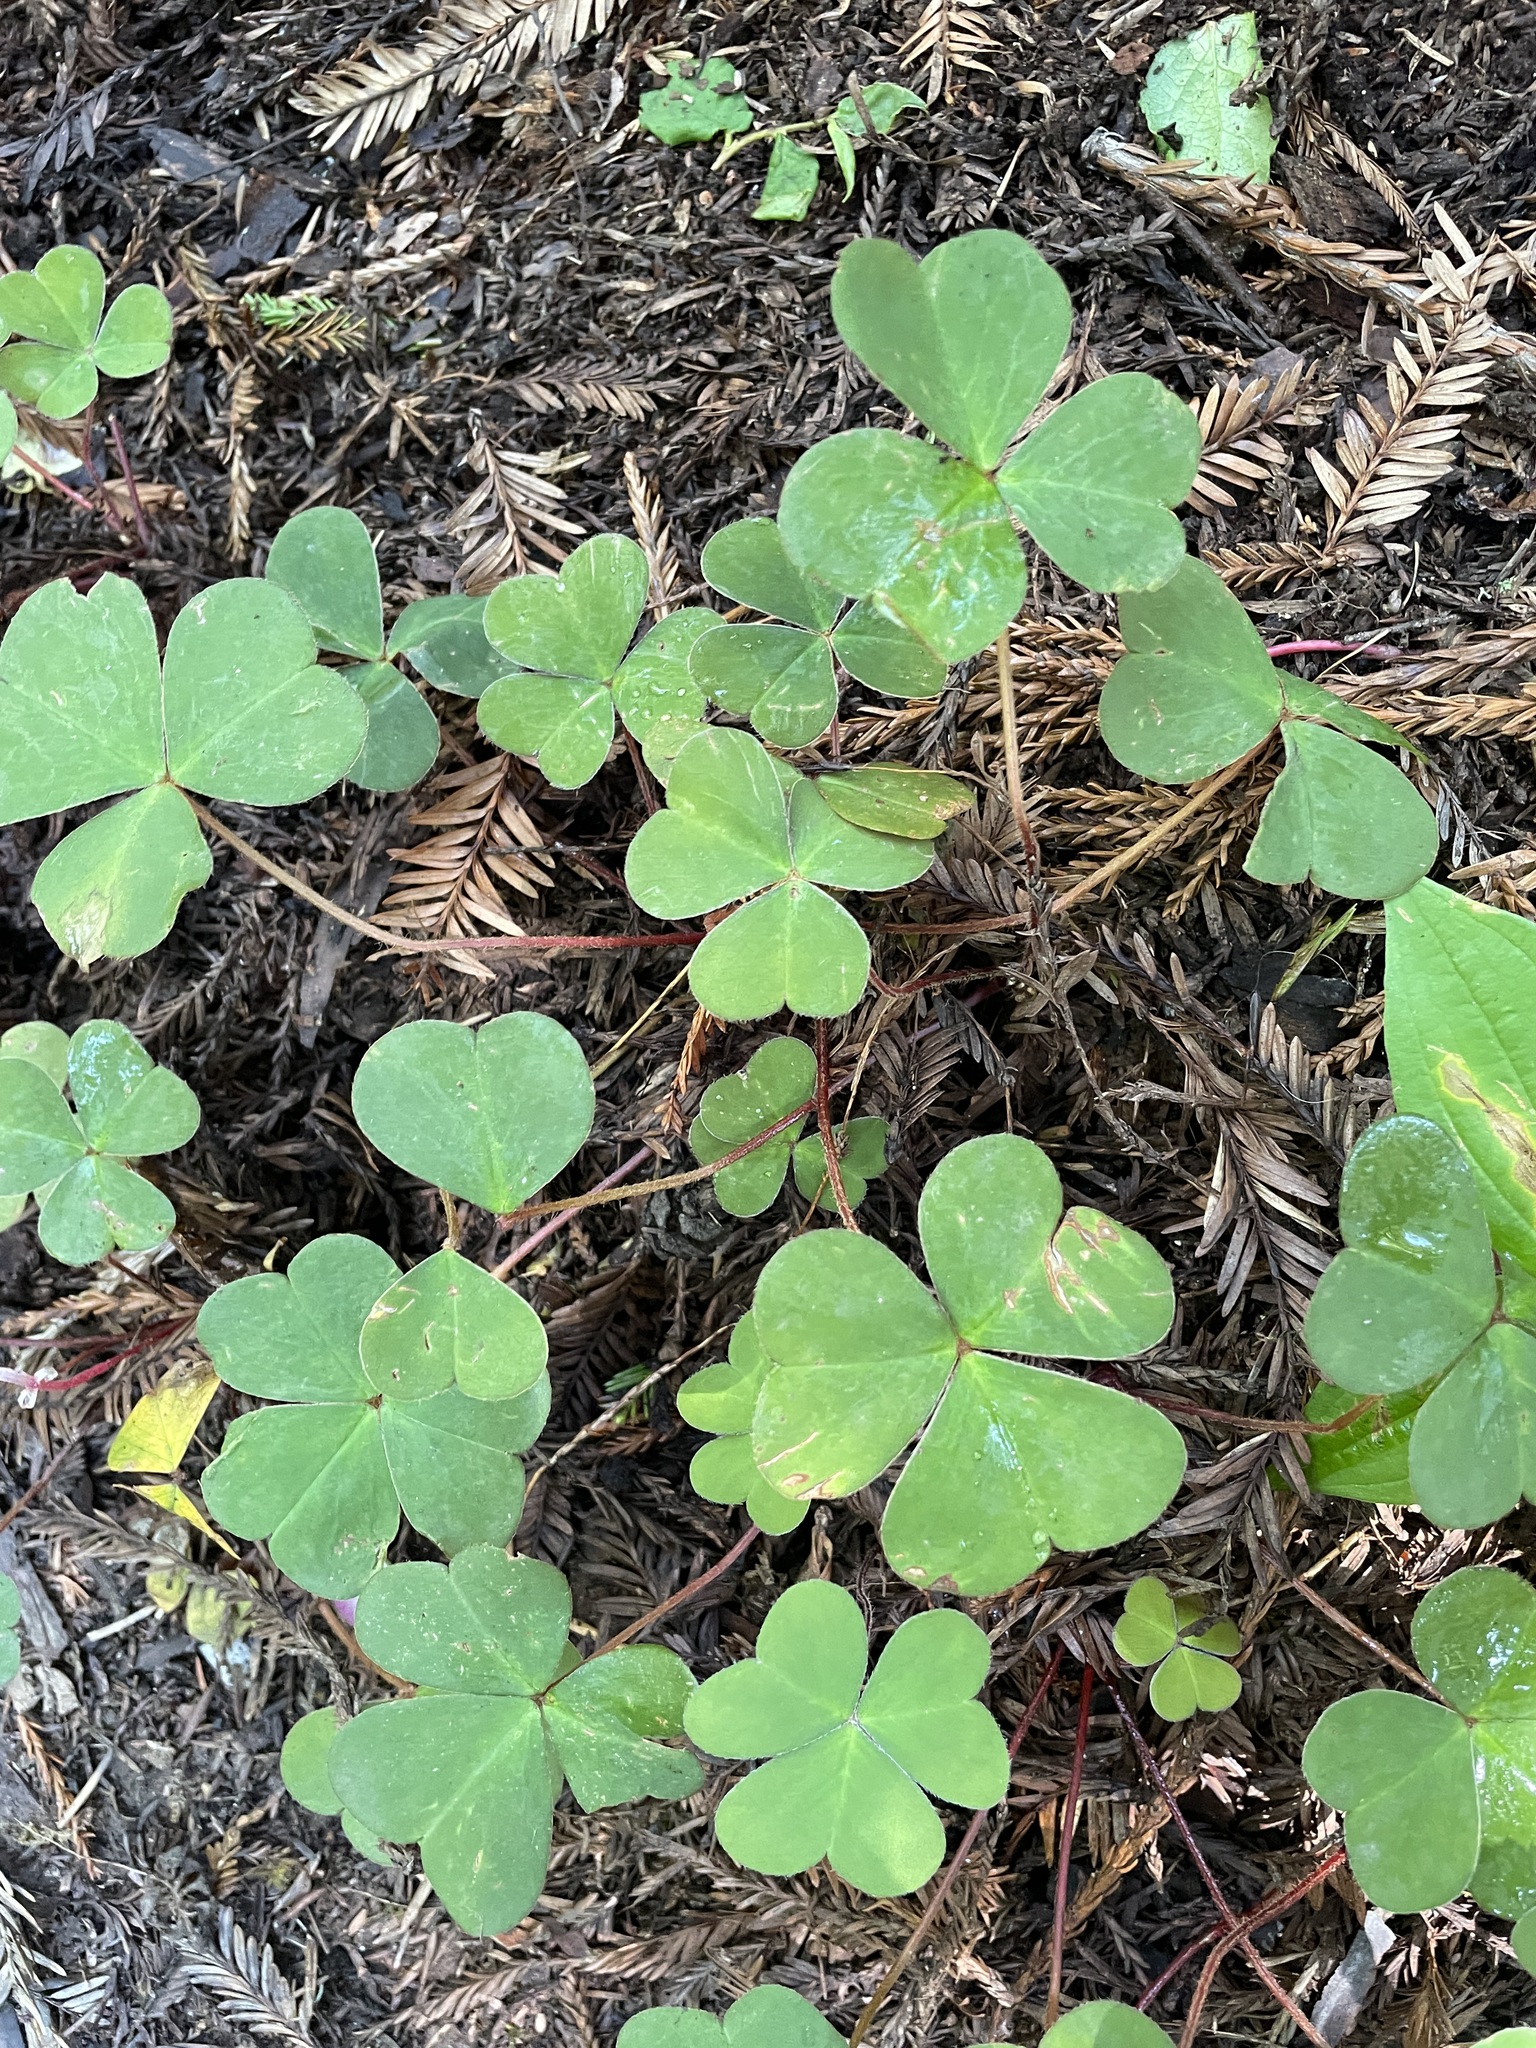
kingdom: Plantae
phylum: Tracheophyta
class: Magnoliopsida
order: Oxalidales
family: Oxalidaceae
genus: Oxalis
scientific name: Oxalis oregana
